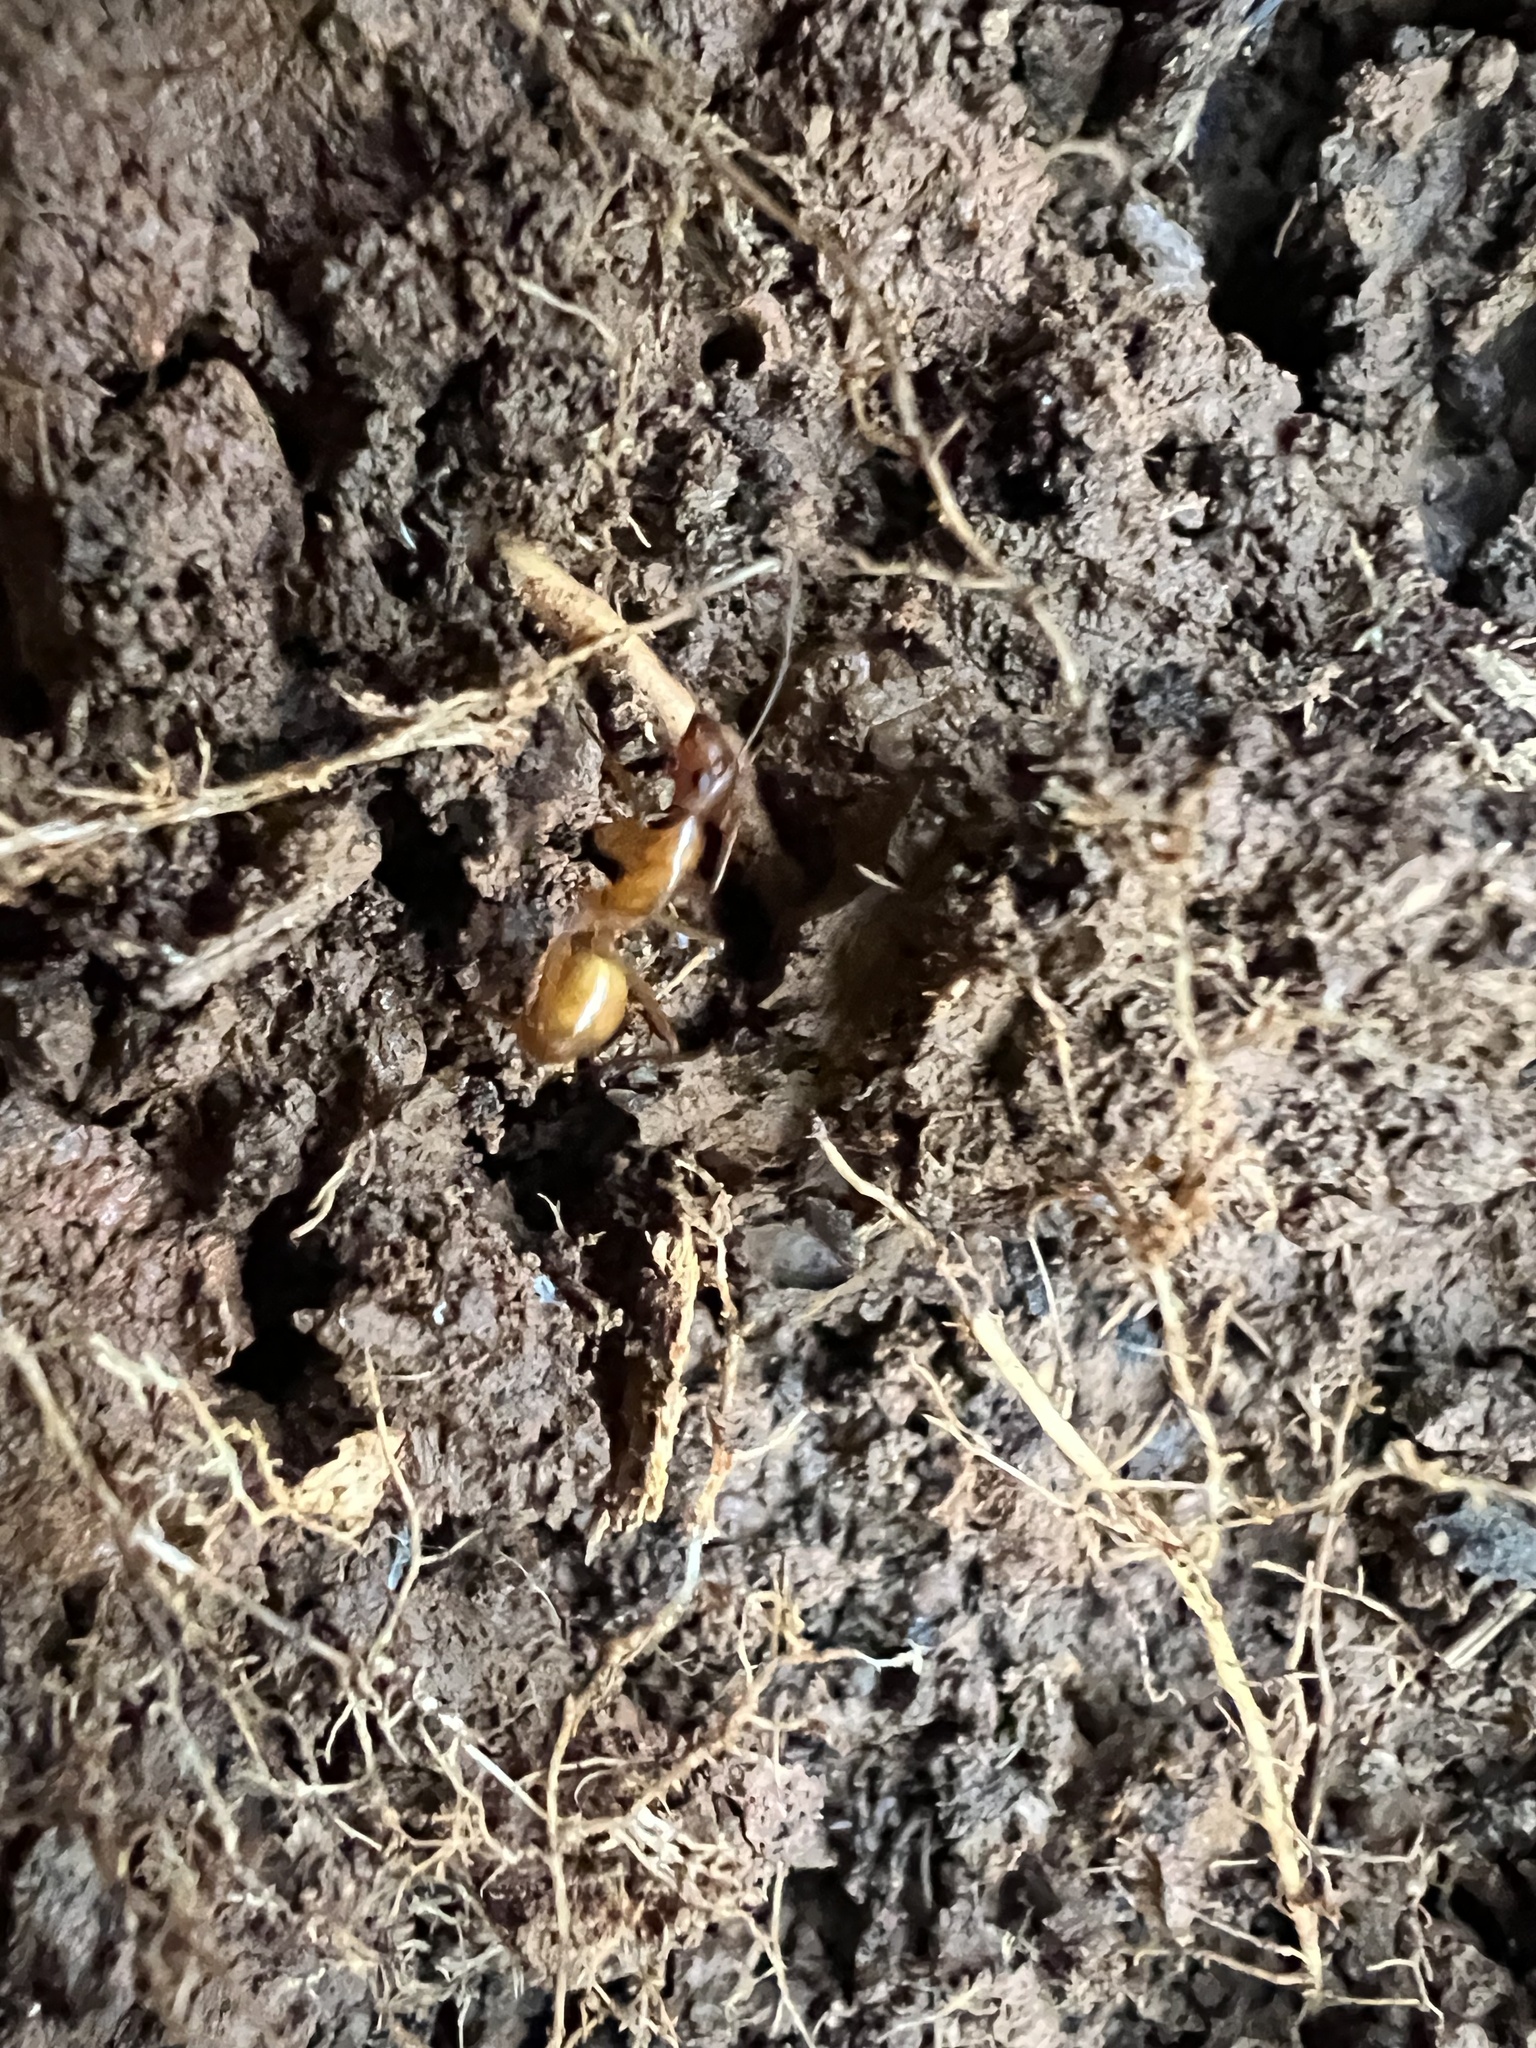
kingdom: Animalia
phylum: Arthropoda
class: Insecta
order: Hymenoptera
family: Formicidae
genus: Camponotus
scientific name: Camponotus castaneus
